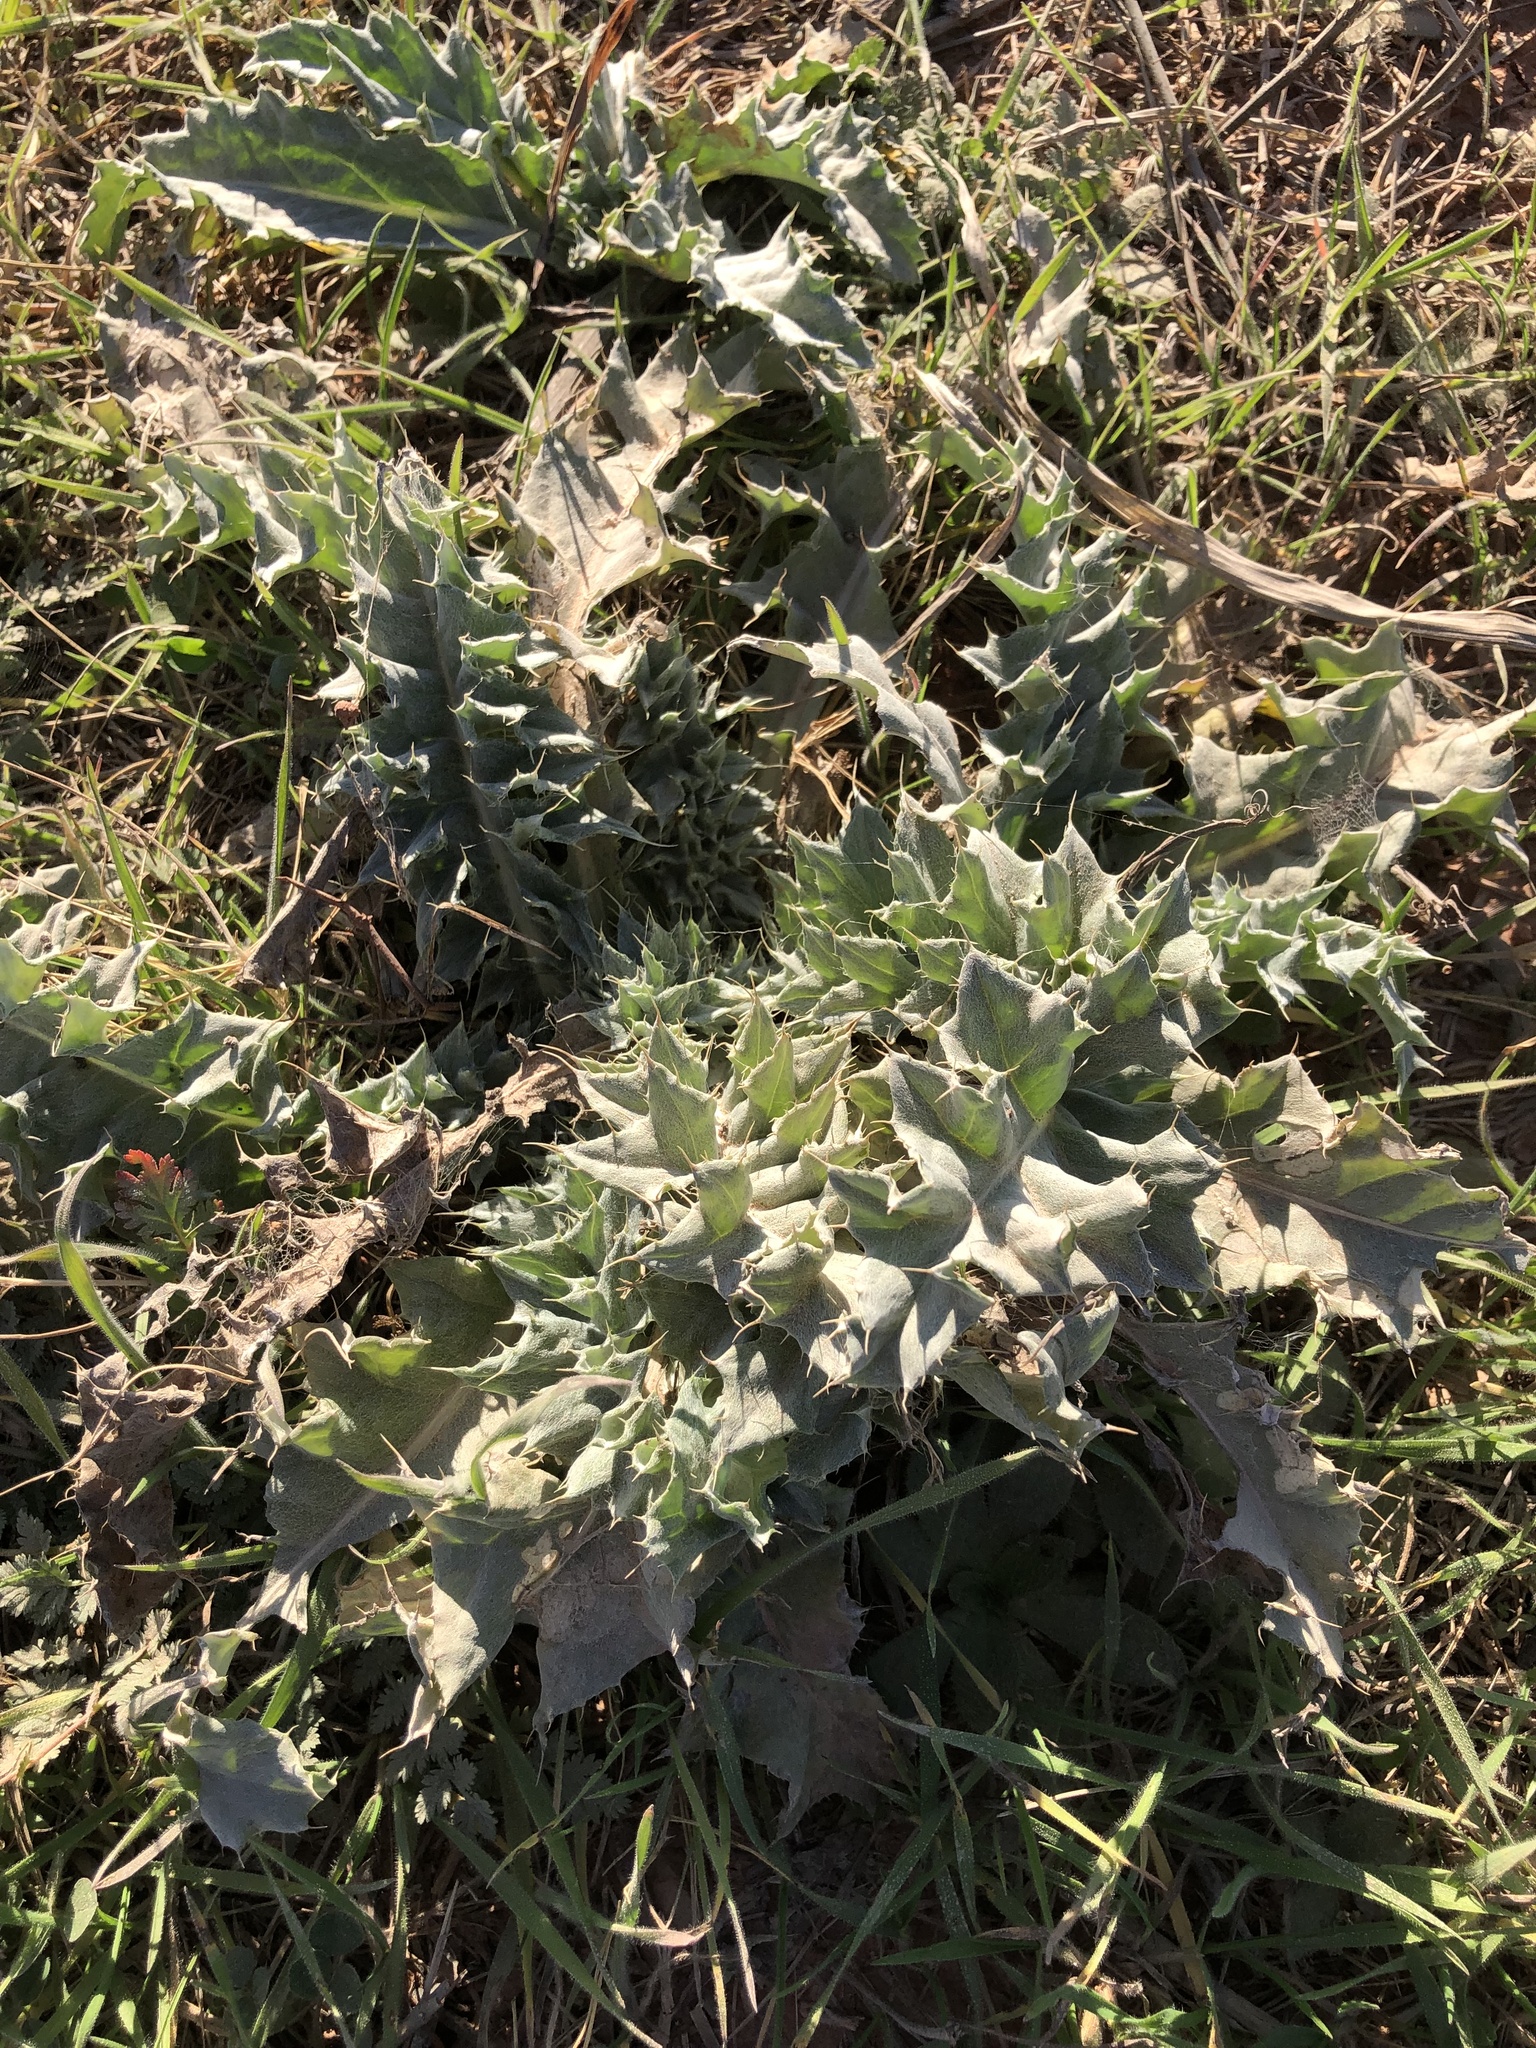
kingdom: Plantae
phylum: Tracheophyta
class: Magnoliopsida
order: Asterales
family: Asteraceae
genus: Cirsium
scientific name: Cirsium undulatum
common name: Pasture thistle
